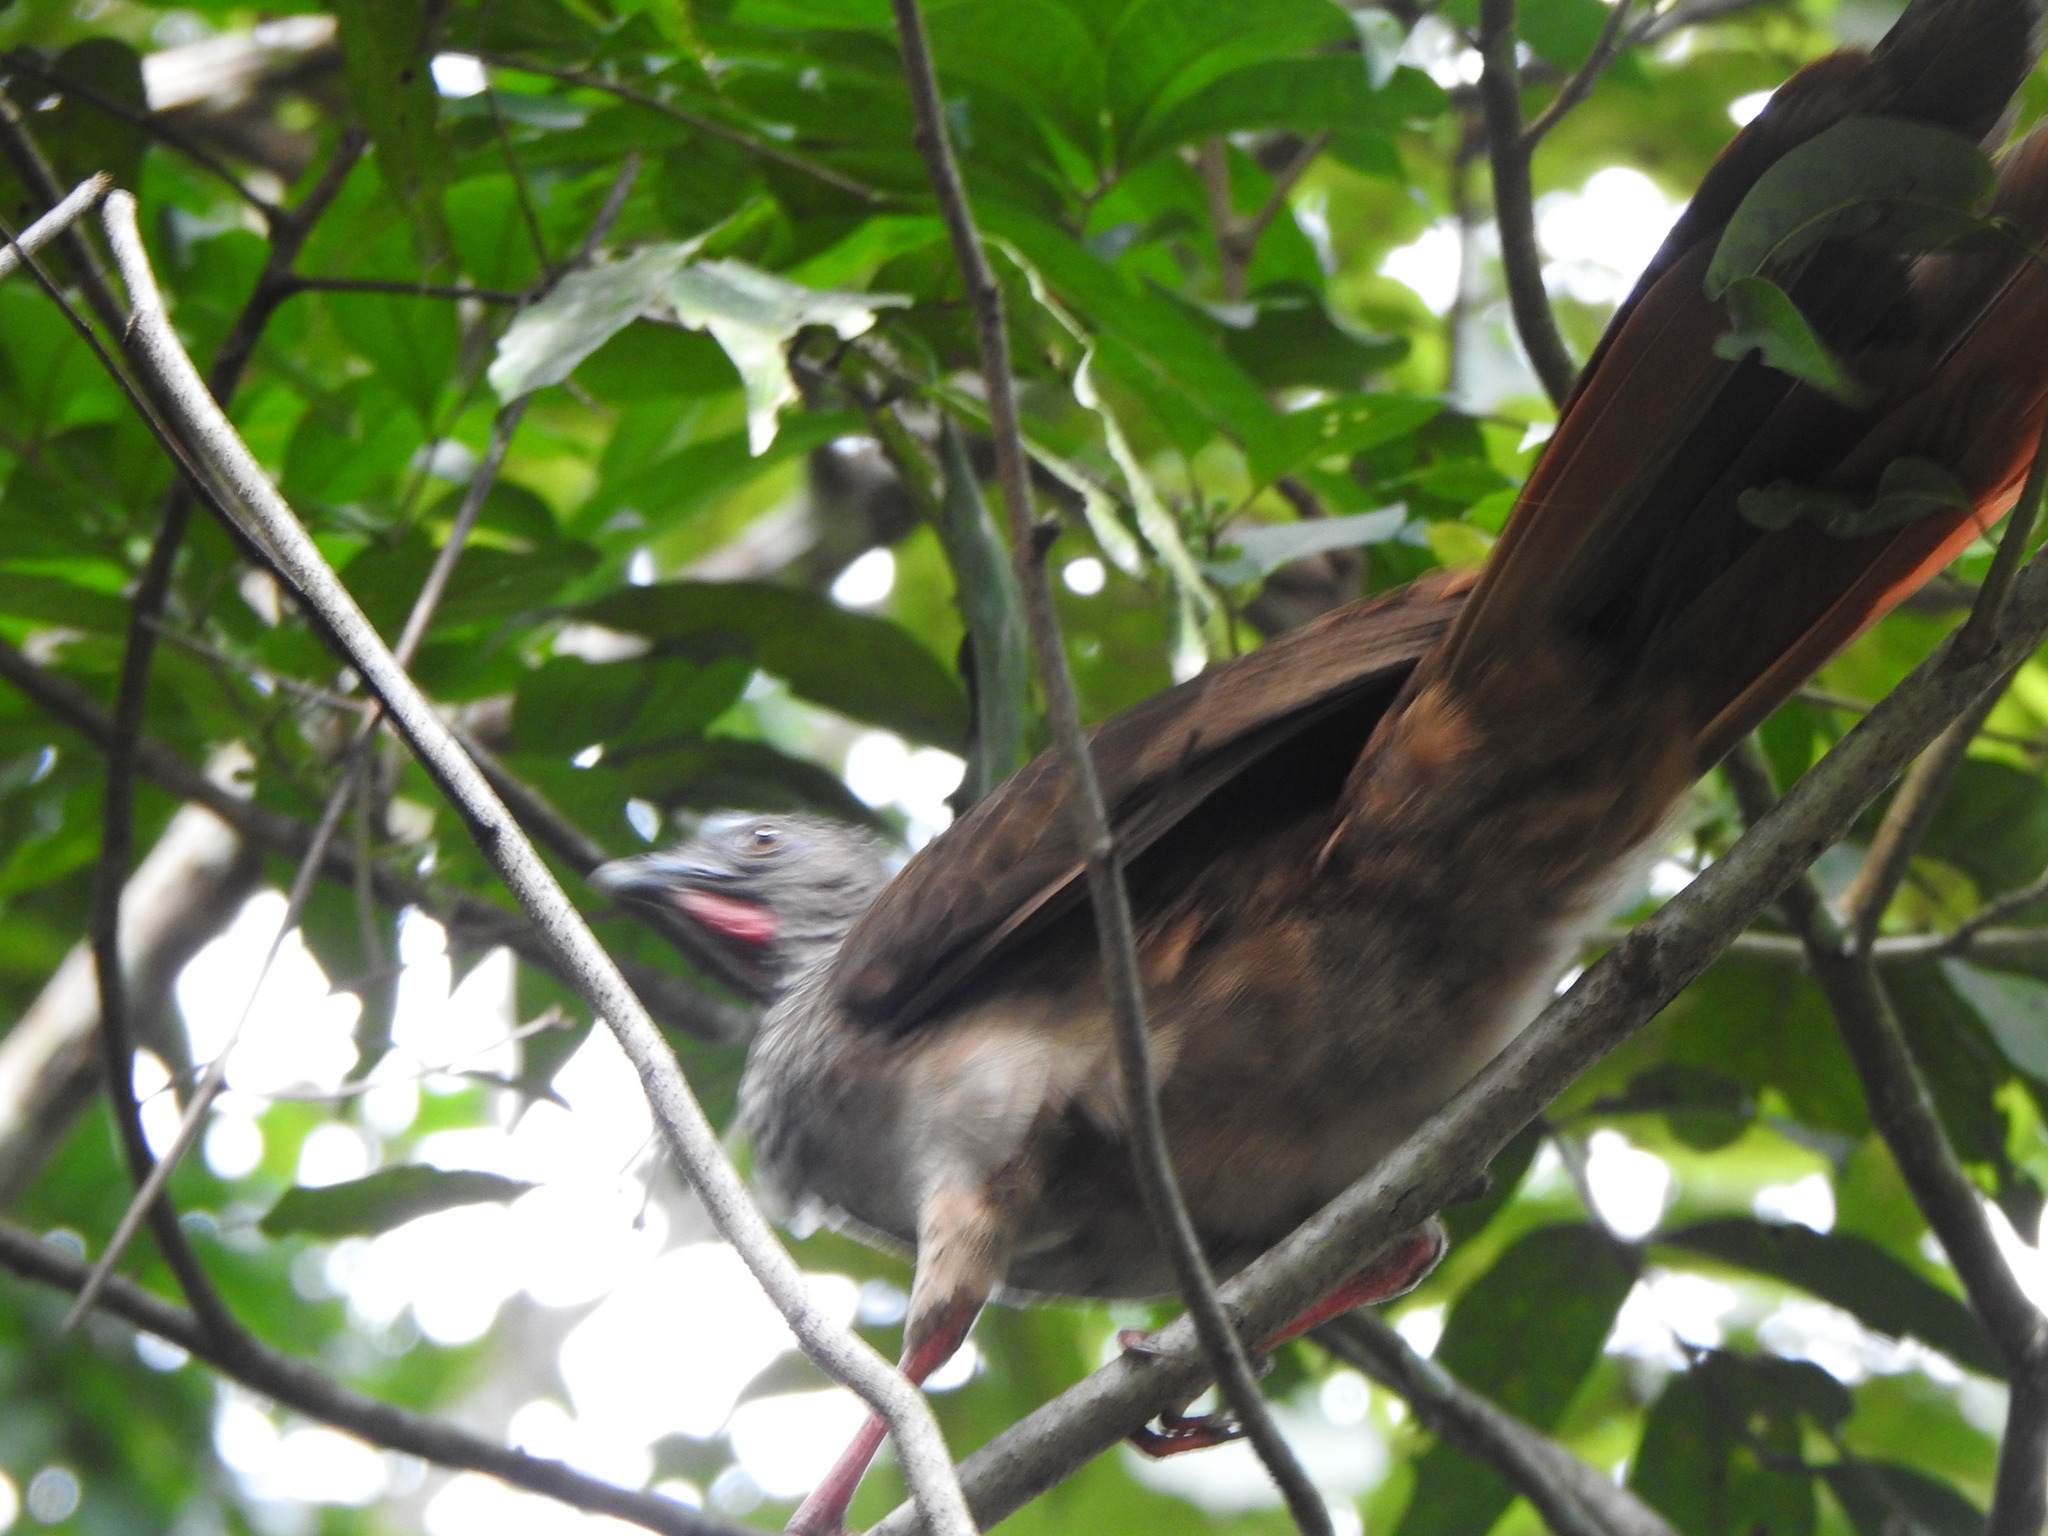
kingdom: Animalia
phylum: Chordata
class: Aves
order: Galliformes
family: Cracidae
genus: Ortalis
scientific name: Ortalis guttata
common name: Speckled chachalaca
